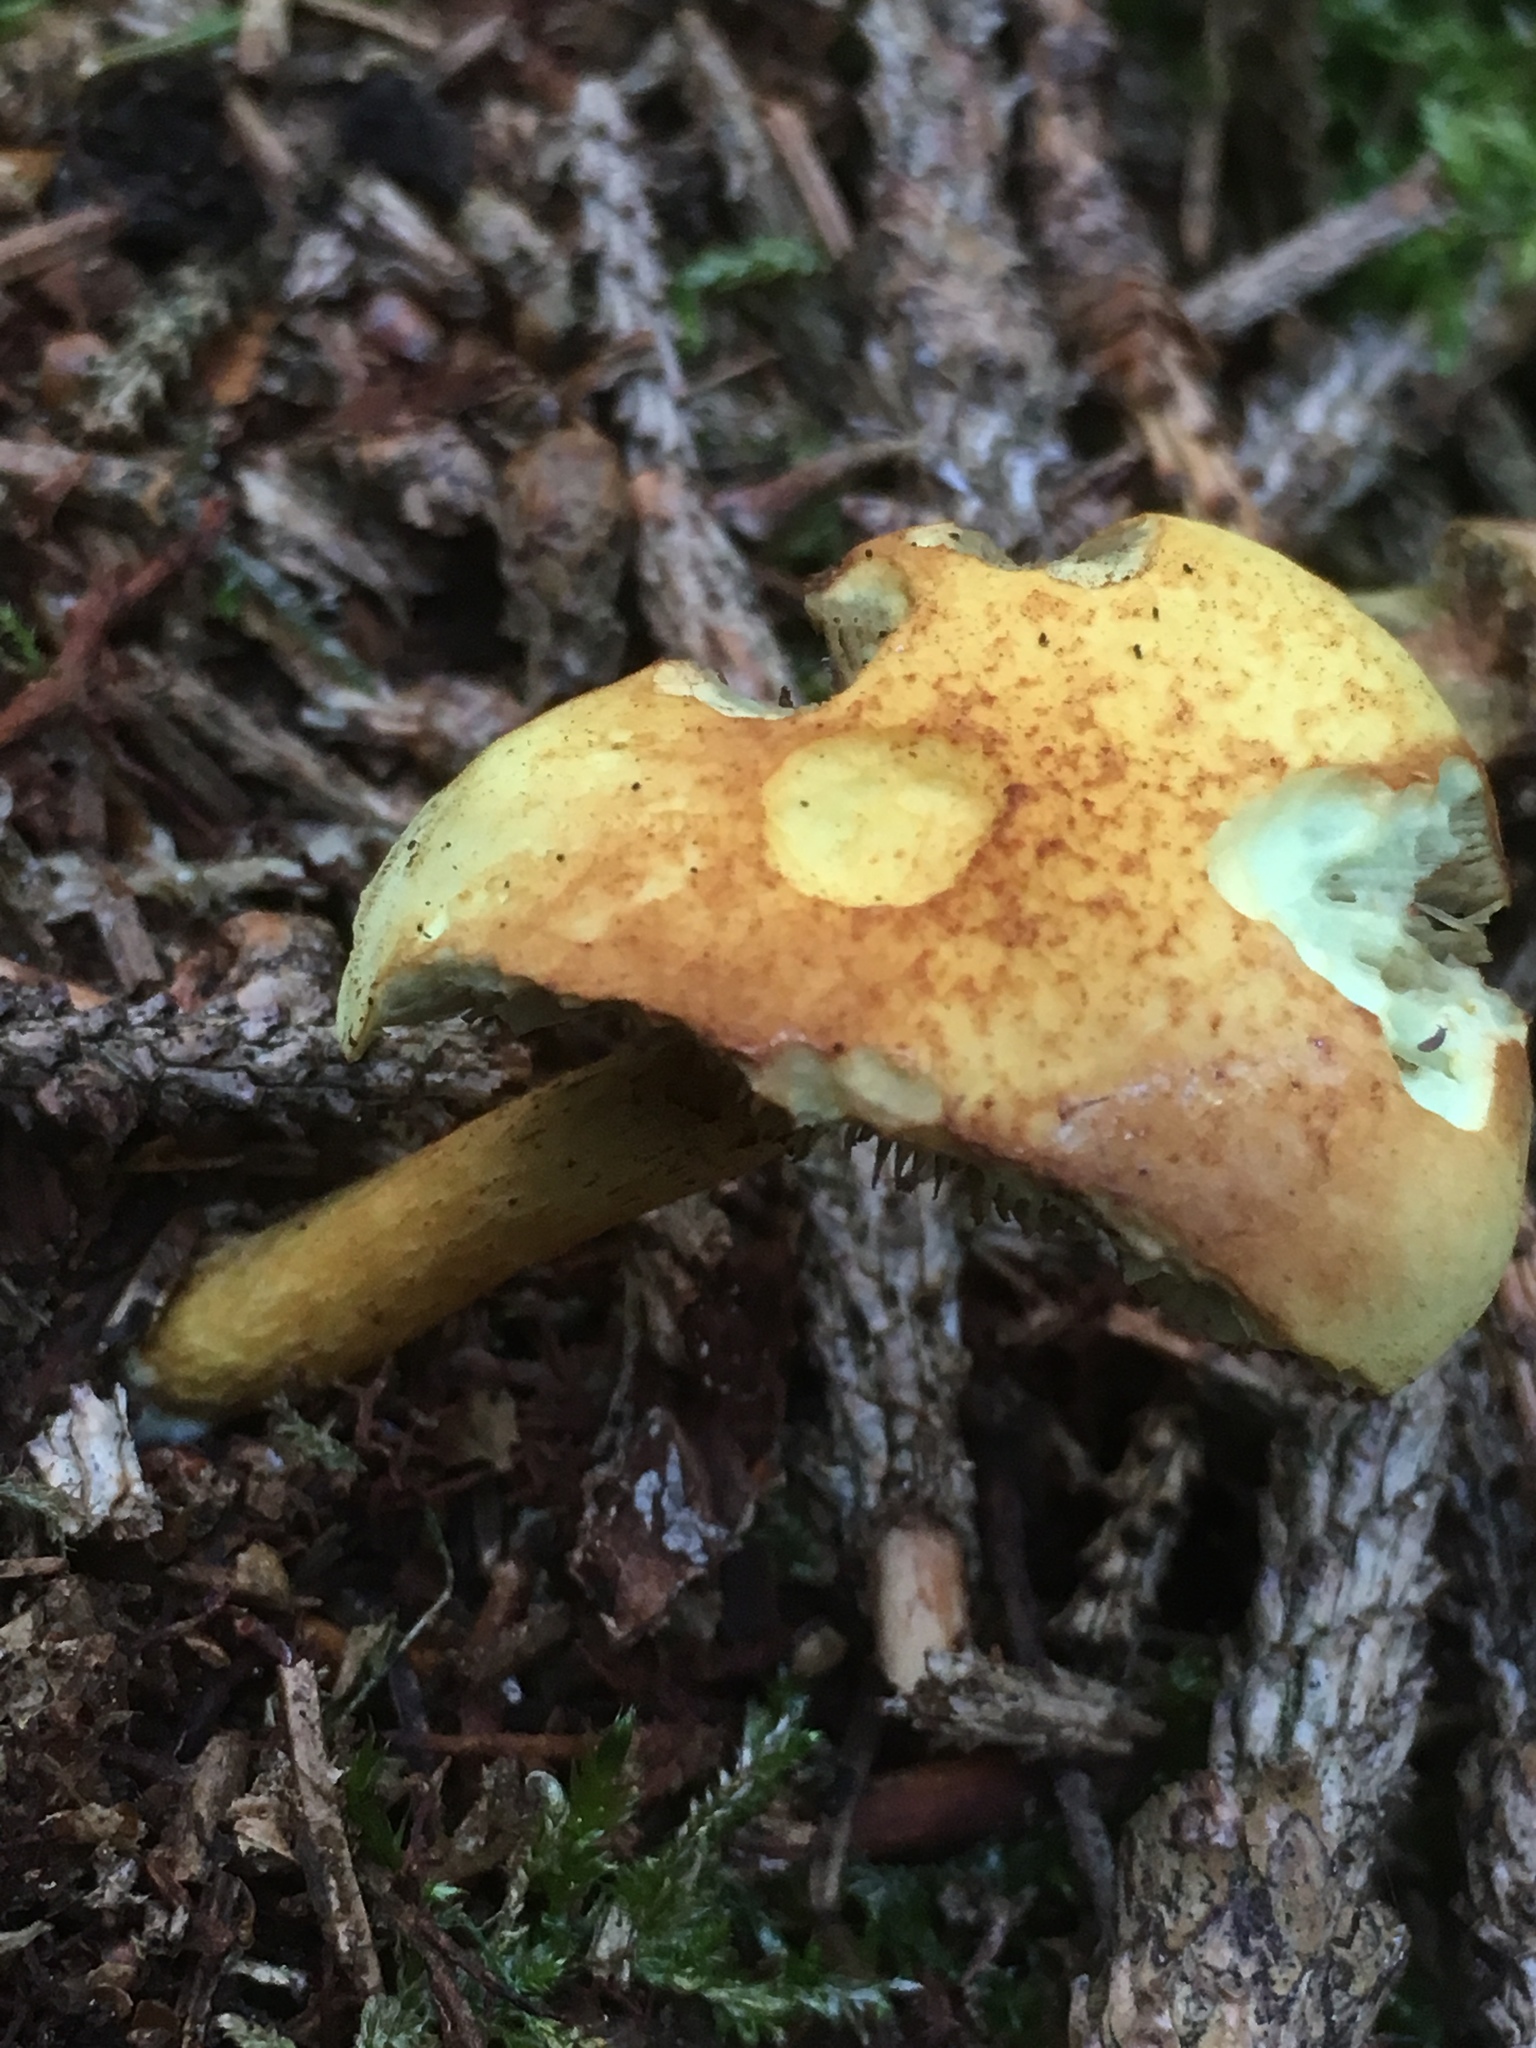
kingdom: Fungi
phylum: Basidiomycota
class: Agaricomycetes
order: Agaricales
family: Strophariaceae
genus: Hypholoma
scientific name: Hypholoma fasciculare
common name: Sulphur tuft
